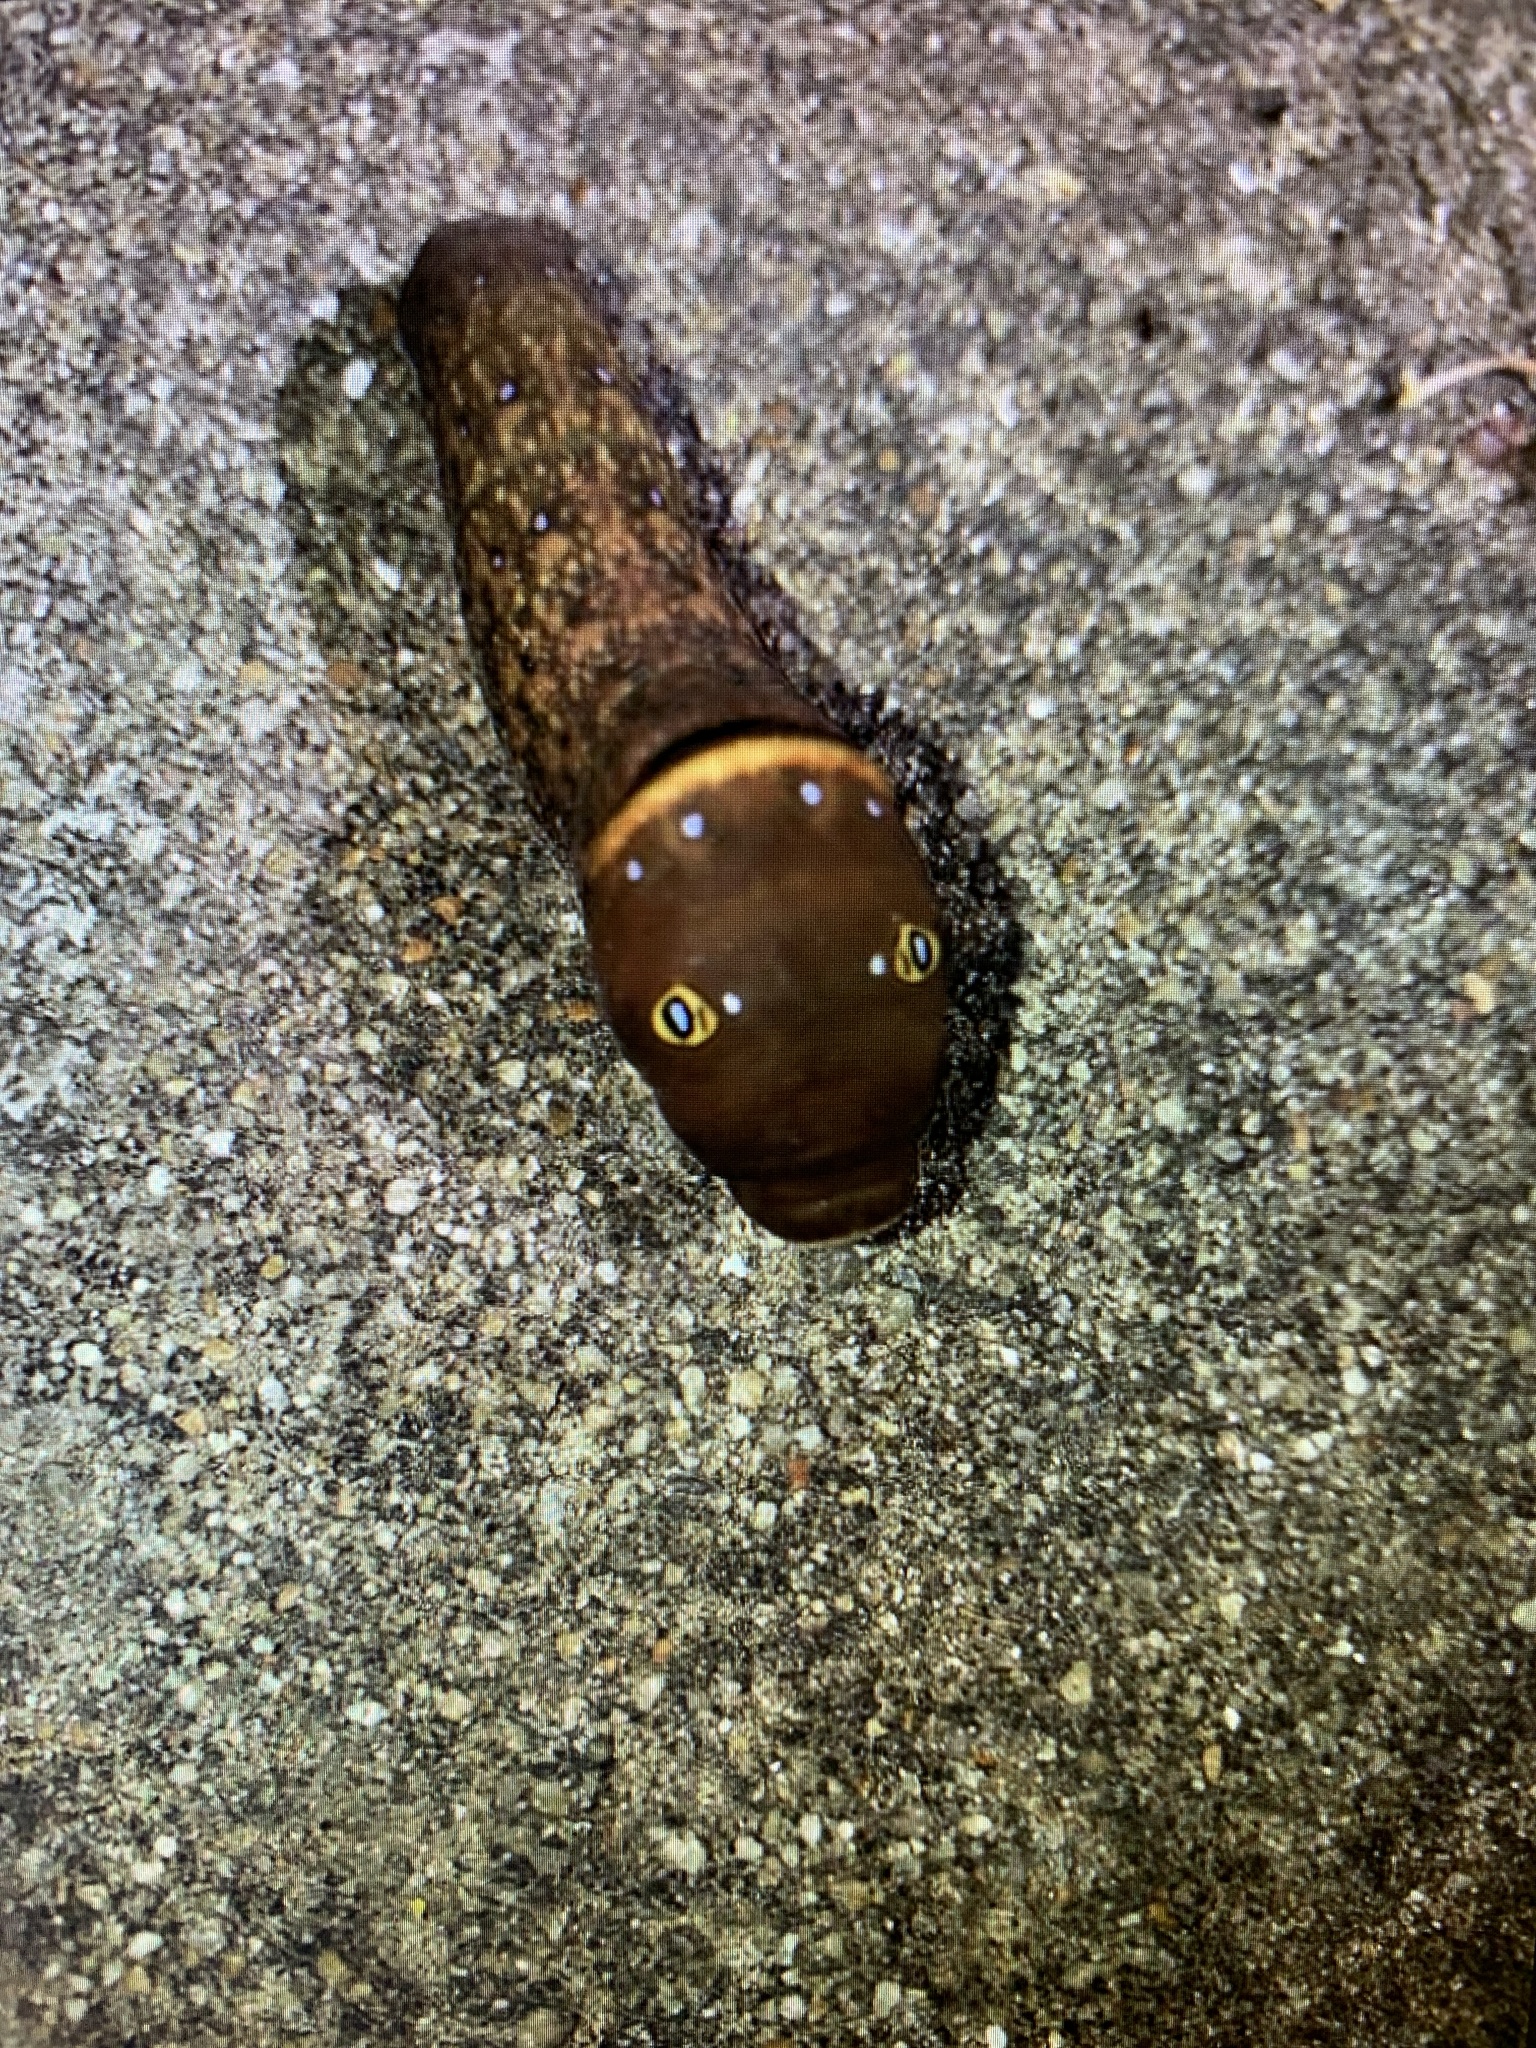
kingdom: Animalia
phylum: Arthropoda
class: Insecta
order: Lepidoptera
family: Papilionidae
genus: Papilio
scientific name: Papilio glaucus
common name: Tiger swallowtail
